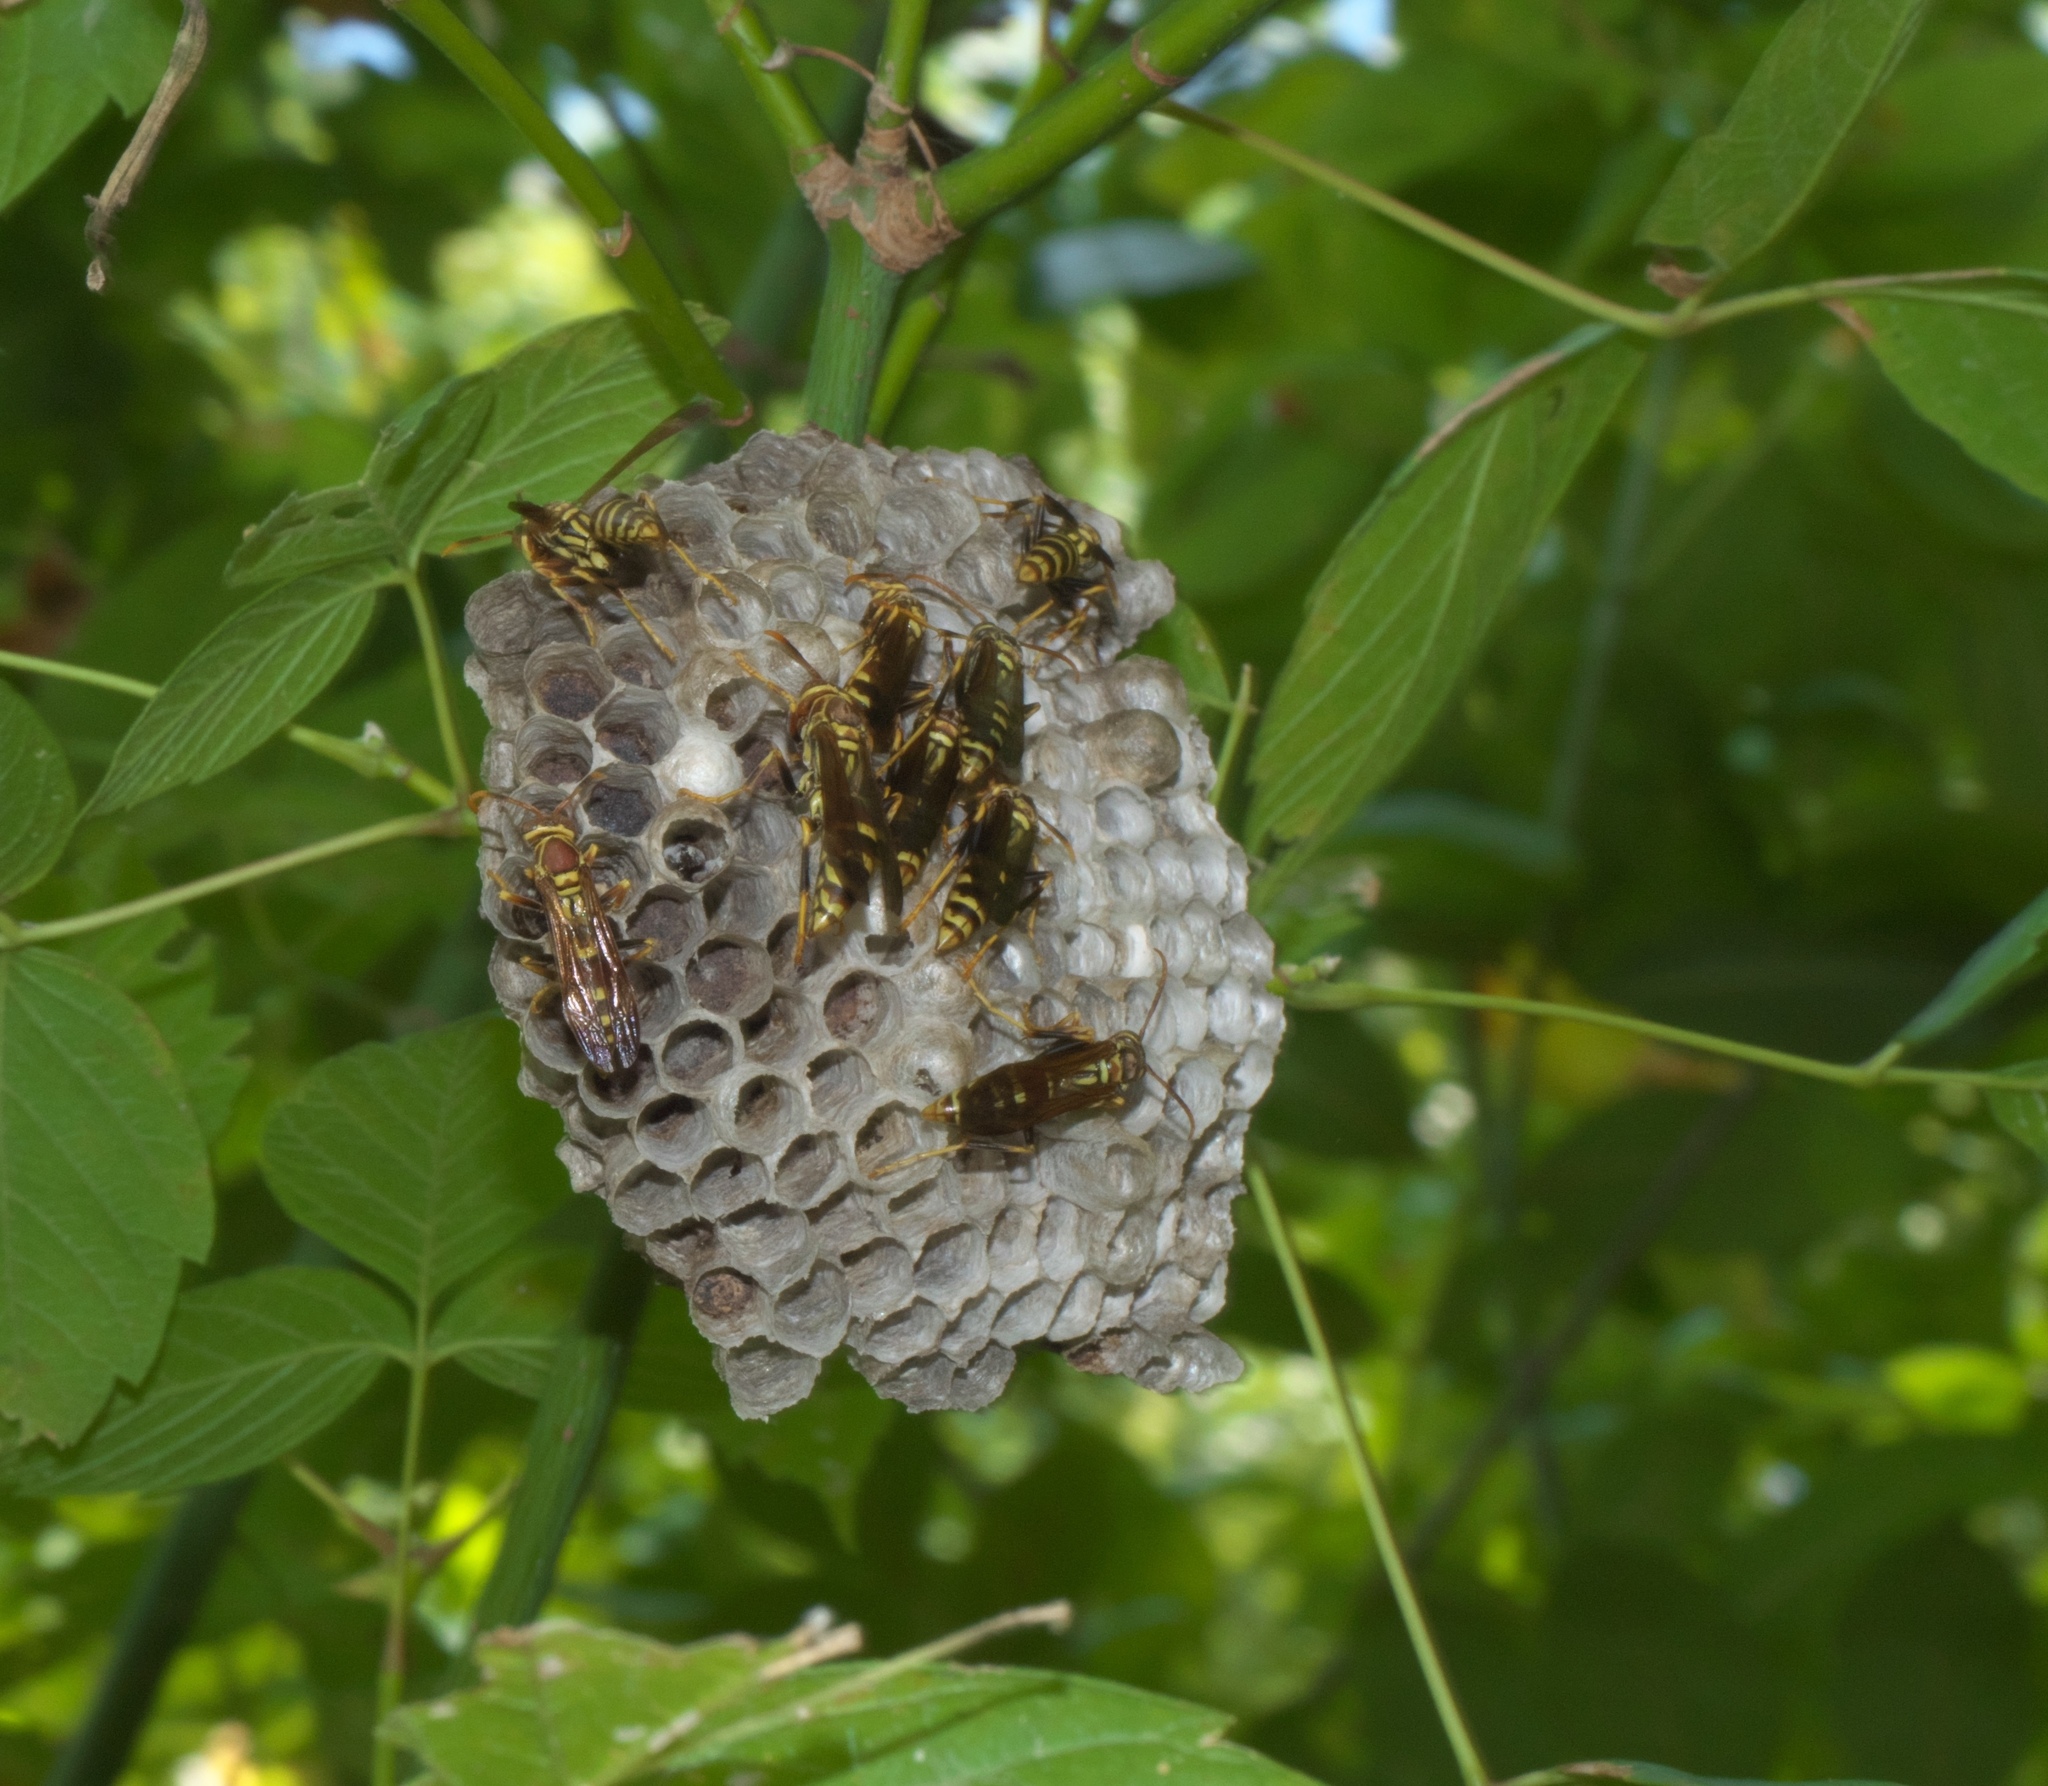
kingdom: Animalia
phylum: Arthropoda
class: Insecta
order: Hymenoptera
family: Eumenidae
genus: Polistes
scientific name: Polistes exclamans
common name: Paper wasp
